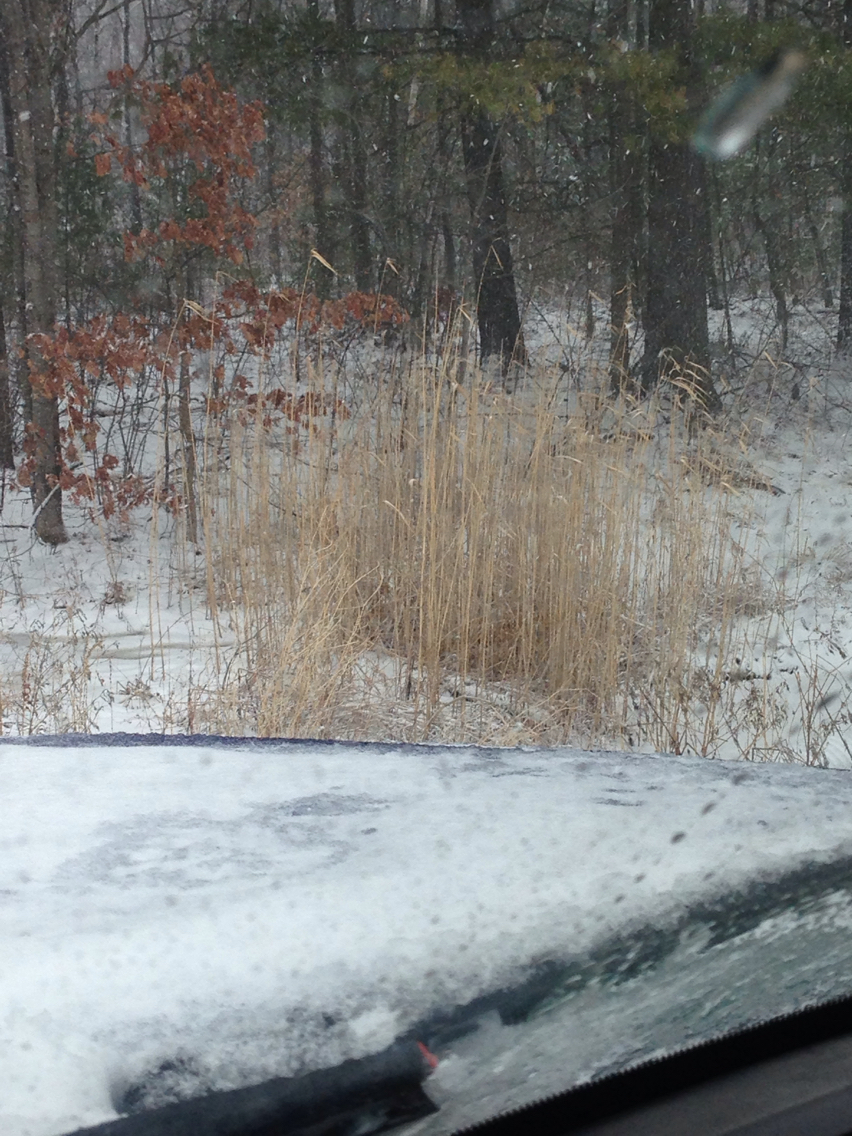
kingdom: Plantae
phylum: Tracheophyta
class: Liliopsida
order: Poales
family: Poaceae
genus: Phragmites
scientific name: Phragmites australis
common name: Common reed
